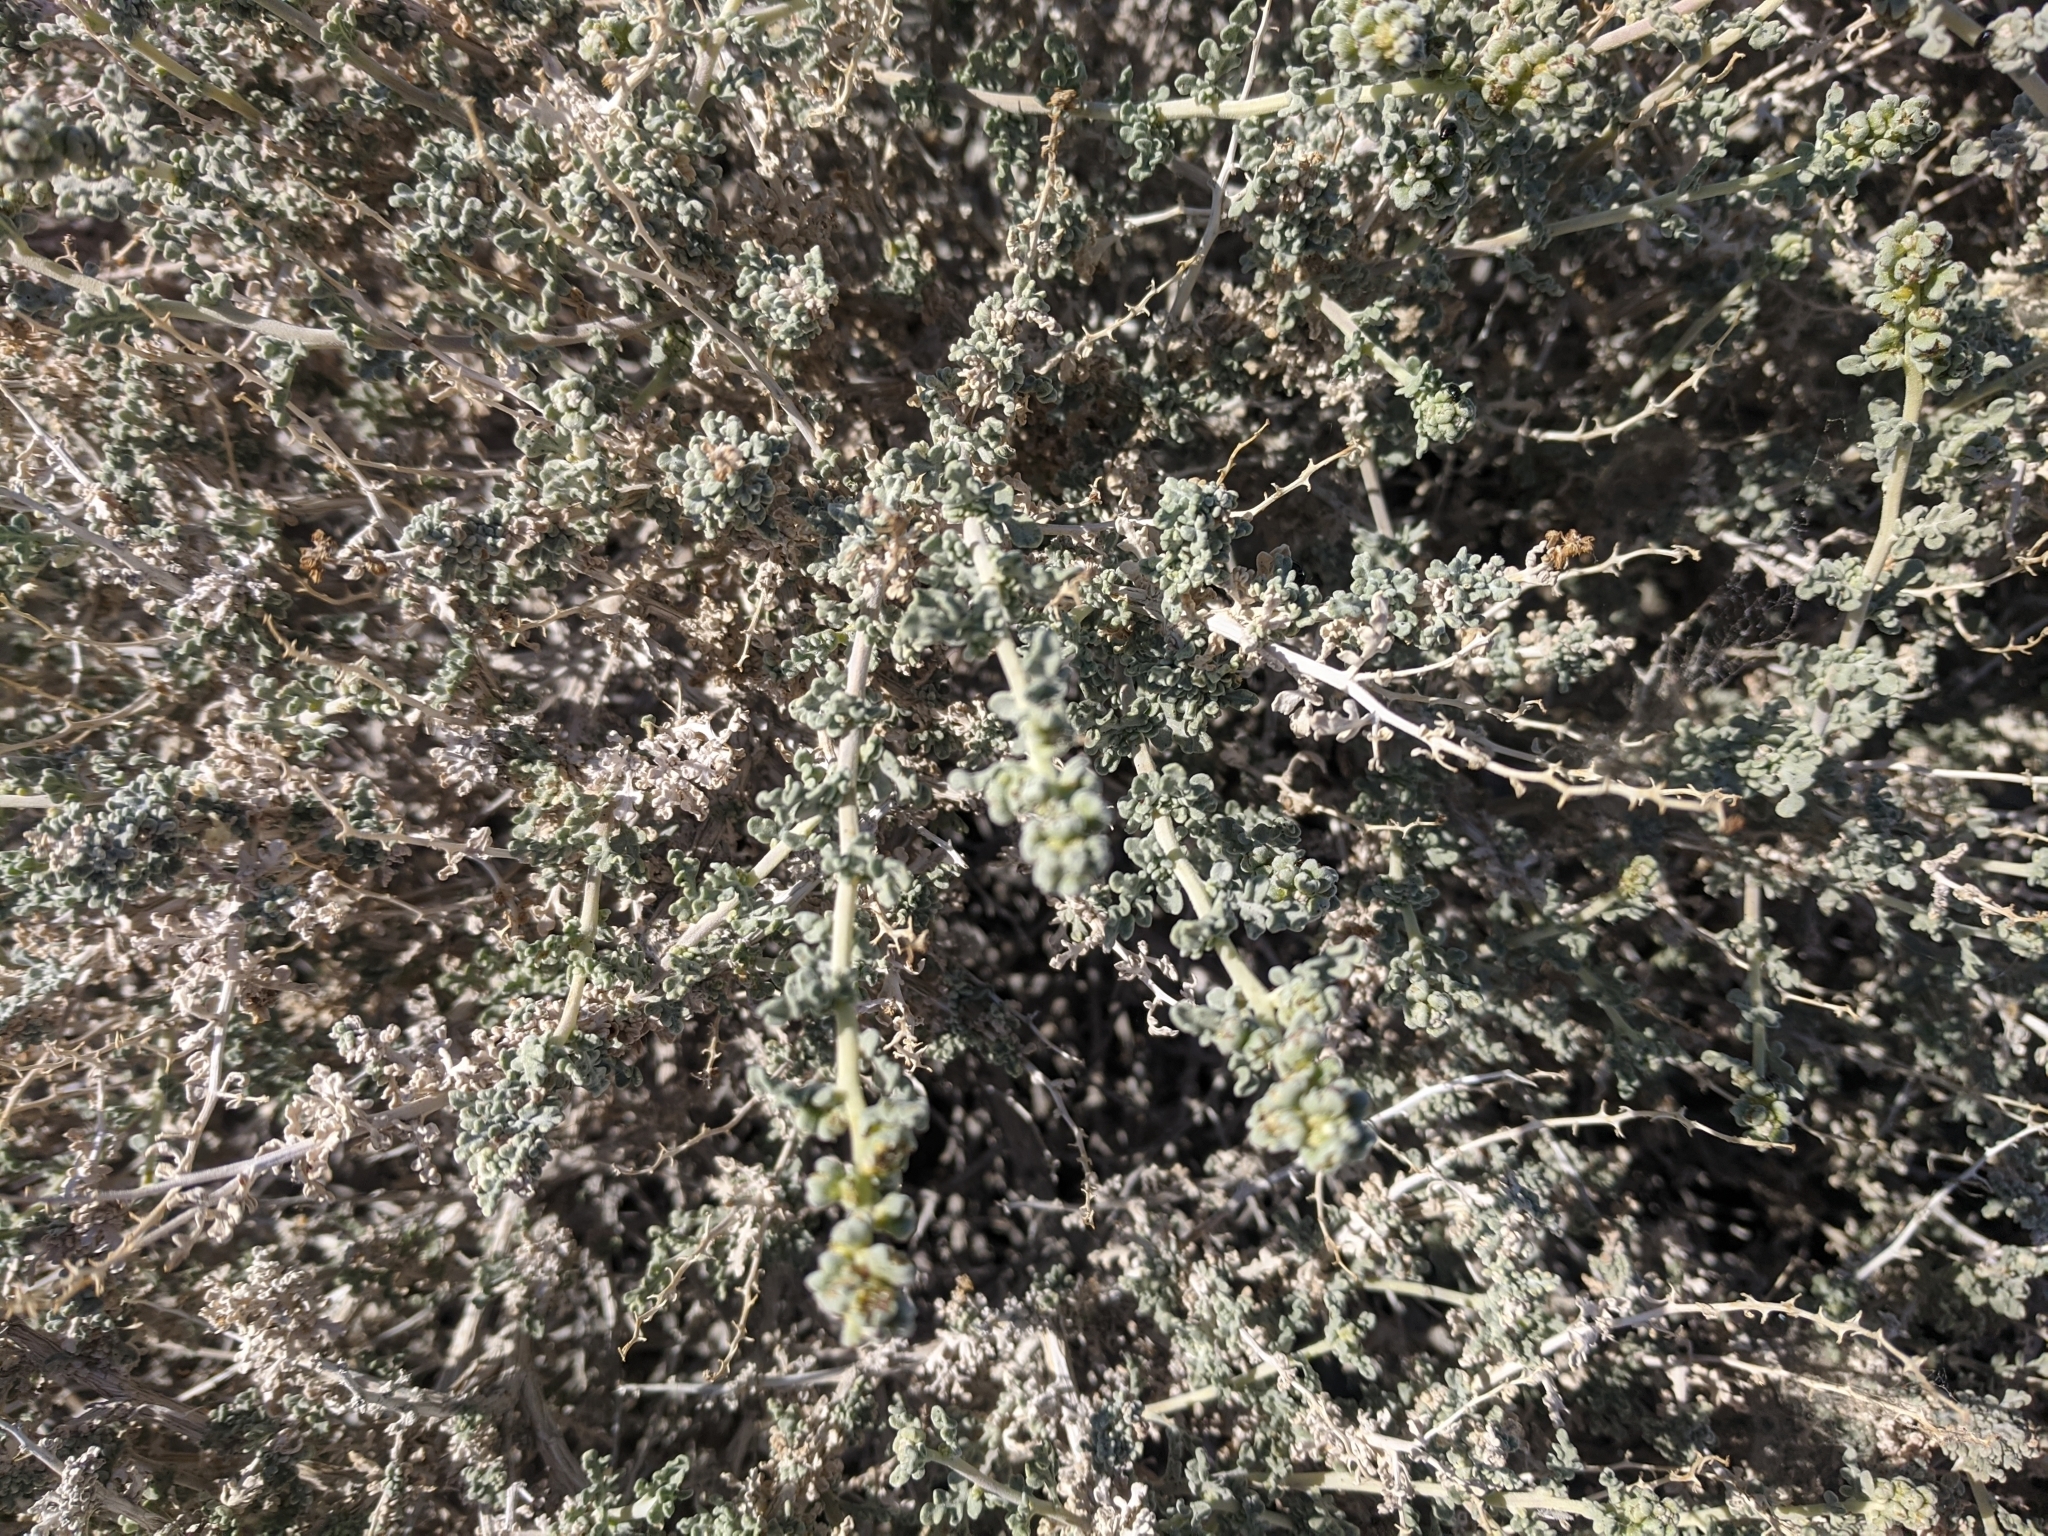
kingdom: Plantae
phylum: Tracheophyta
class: Magnoliopsida
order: Asterales
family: Asteraceae
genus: Ambrosia
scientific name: Ambrosia dumosa
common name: Bur-sage
